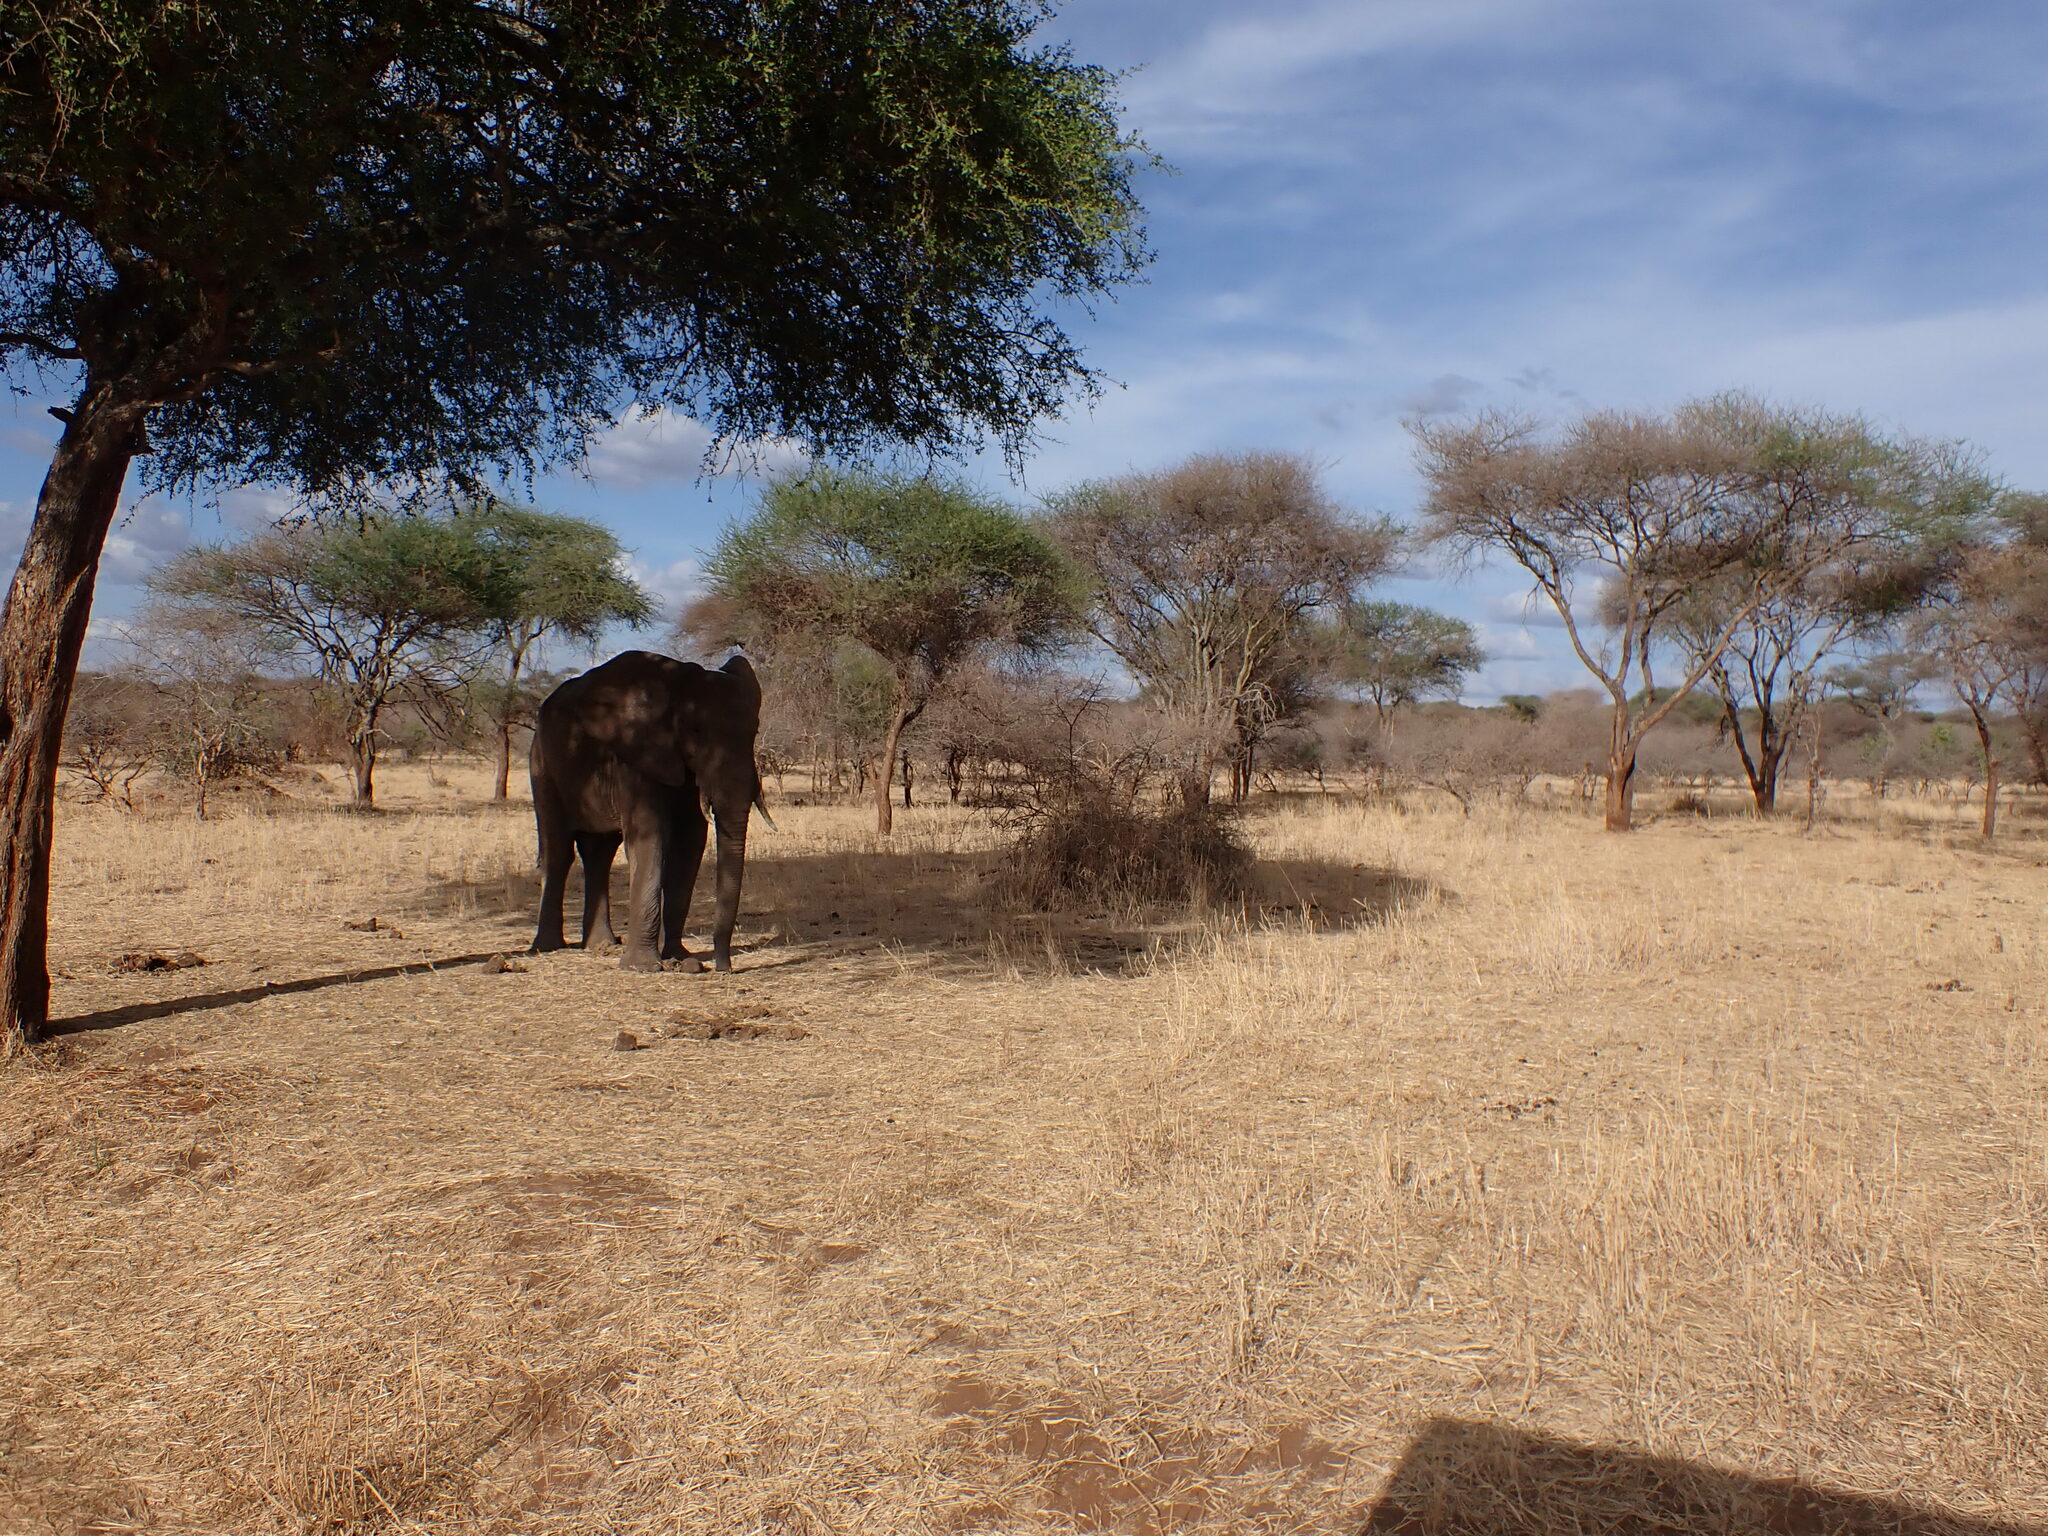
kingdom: Animalia
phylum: Chordata
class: Mammalia
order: Proboscidea
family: Elephantidae
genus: Loxodonta
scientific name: Loxodonta africana
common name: African elephant
